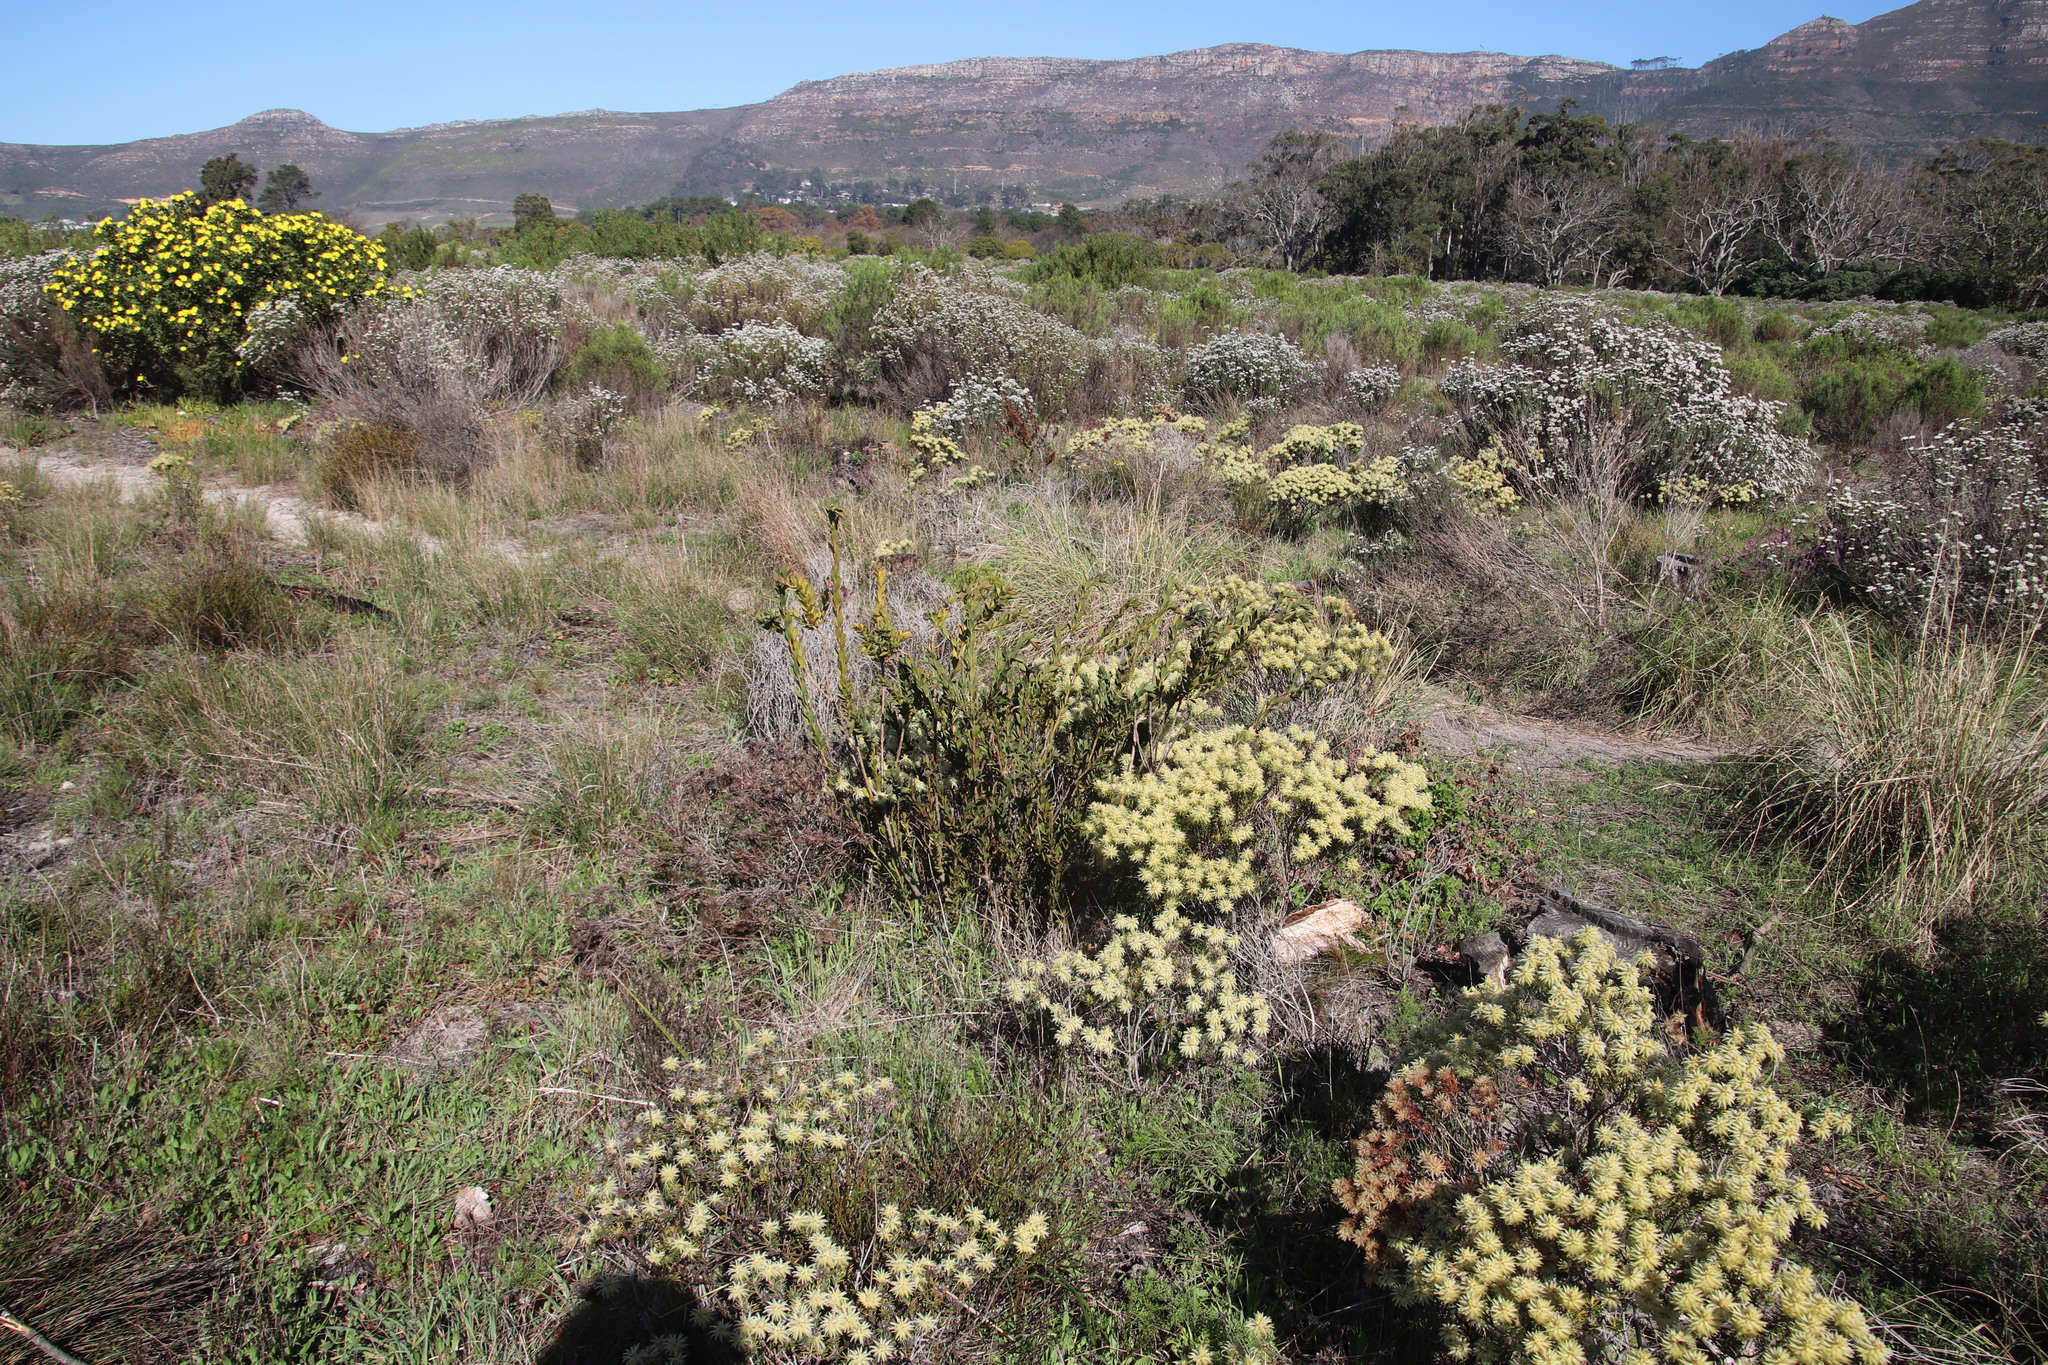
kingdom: Plantae
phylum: Tracheophyta
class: Magnoliopsida
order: Fabales
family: Fabaceae
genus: Liparia
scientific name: Liparia splendens
